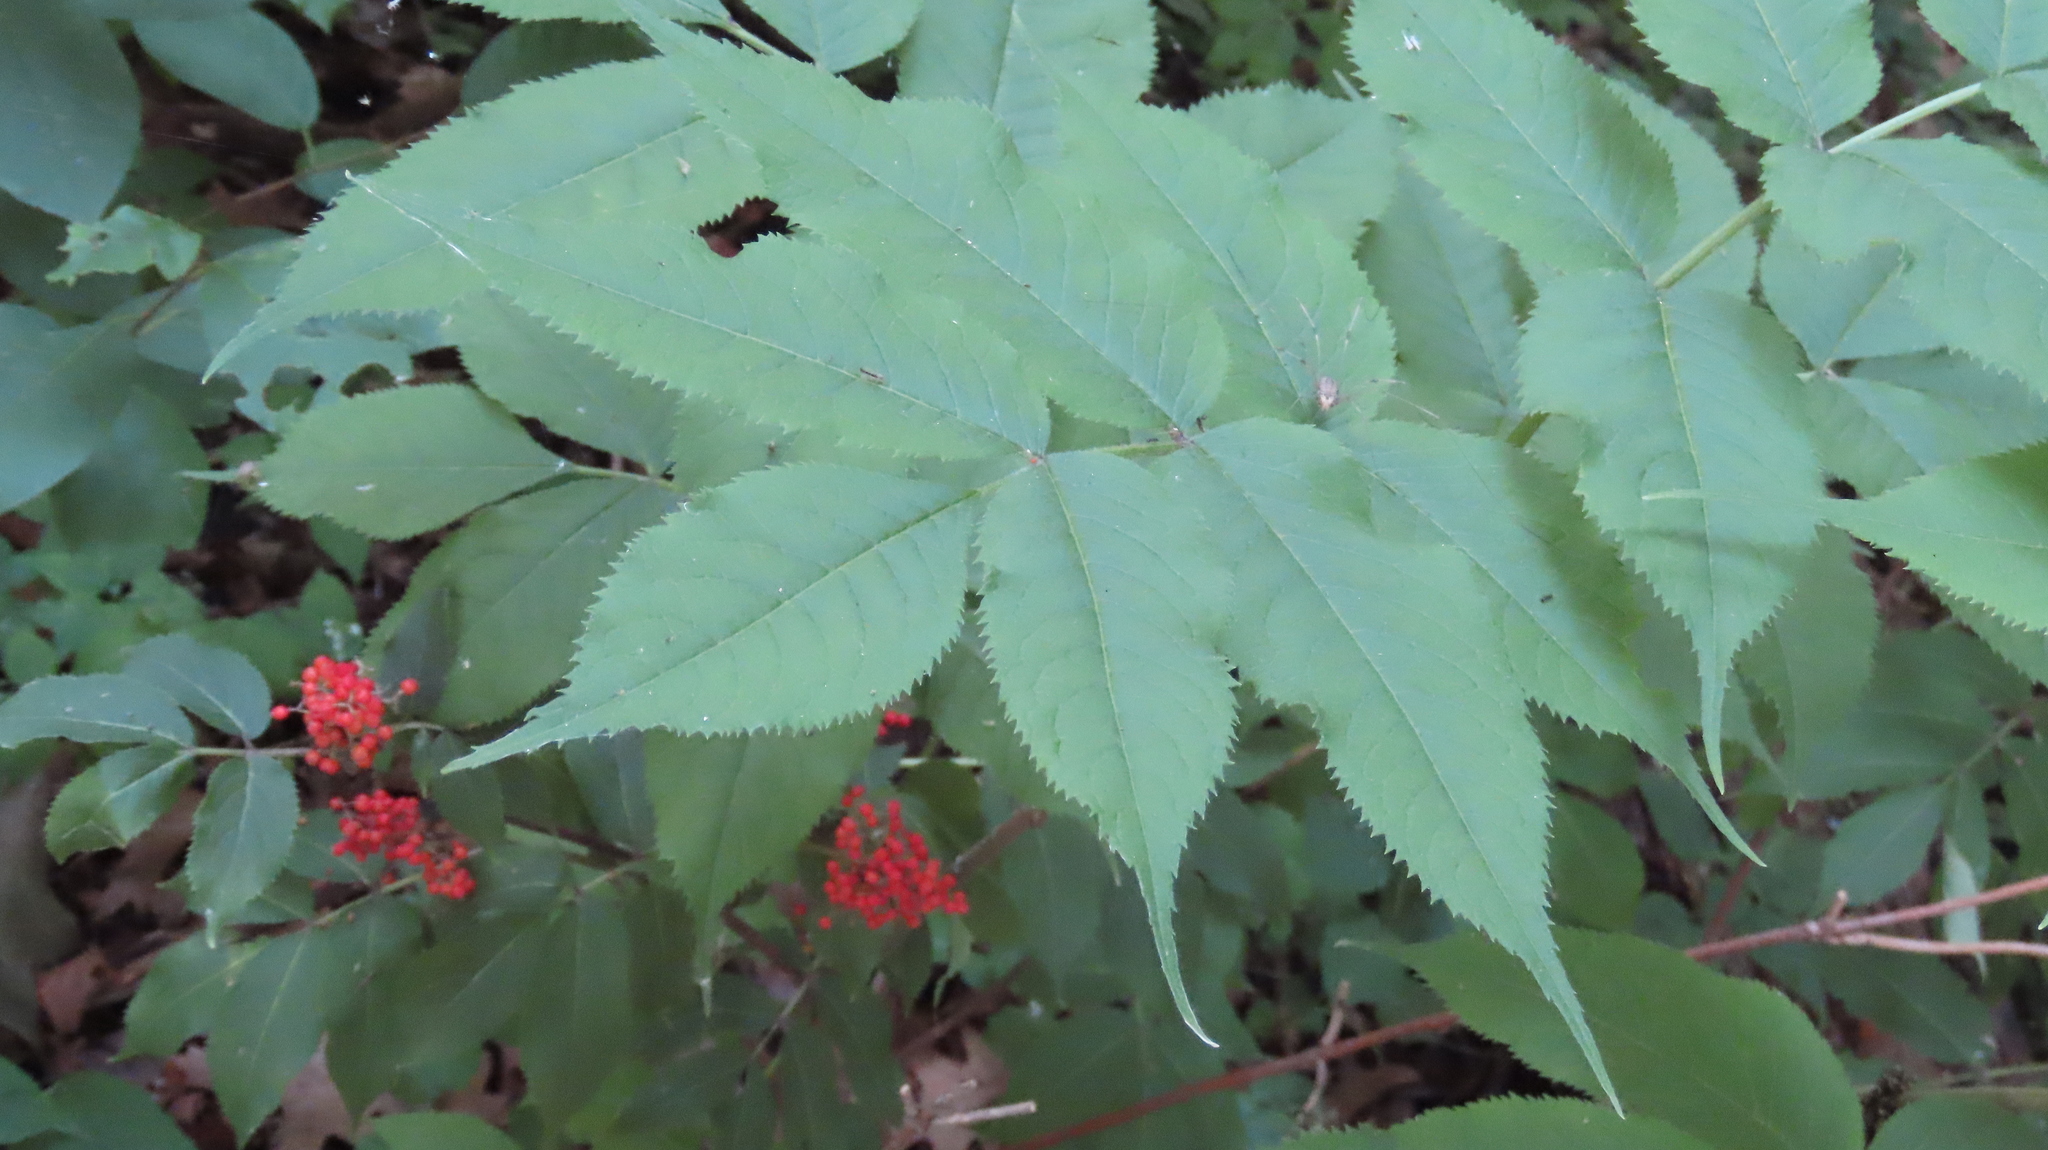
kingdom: Plantae
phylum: Tracheophyta
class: Magnoliopsida
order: Dipsacales
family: Viburnaceae
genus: Sambucus
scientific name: Sambucus racemosa
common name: Red-berried elder
